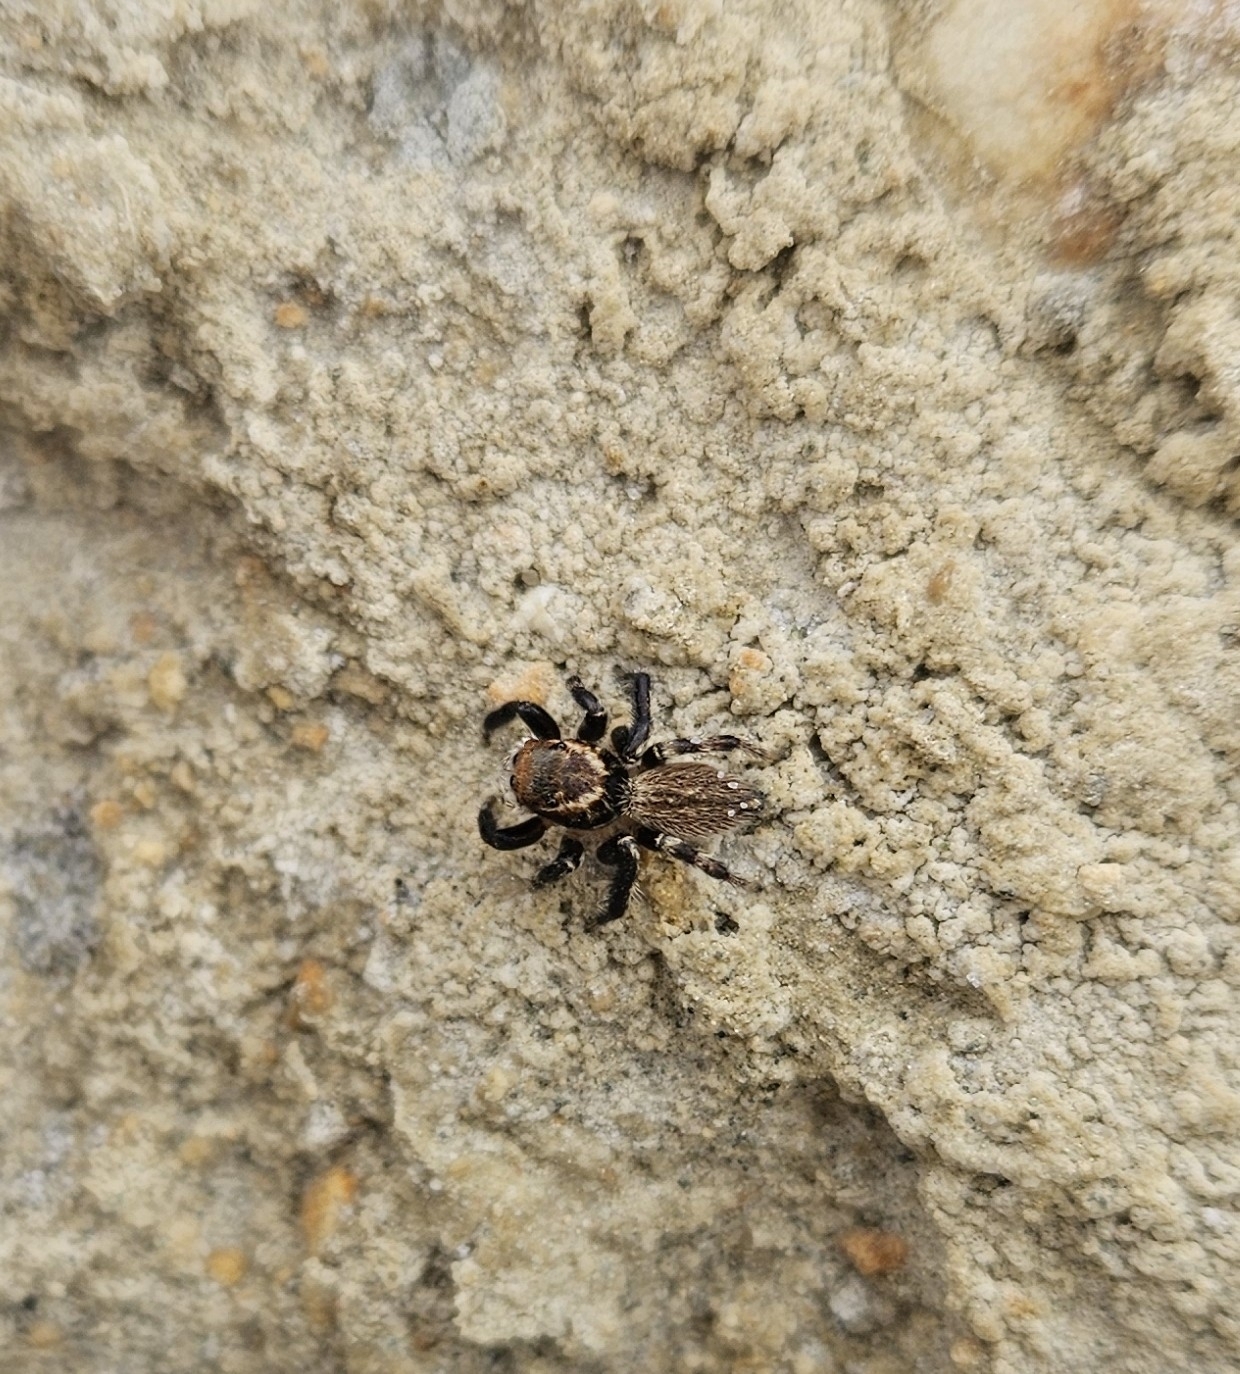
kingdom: Animalia
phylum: Arthropoda
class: Arachnida
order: Araneae
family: Salticidae
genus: Maratus
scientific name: Maratus griseus
